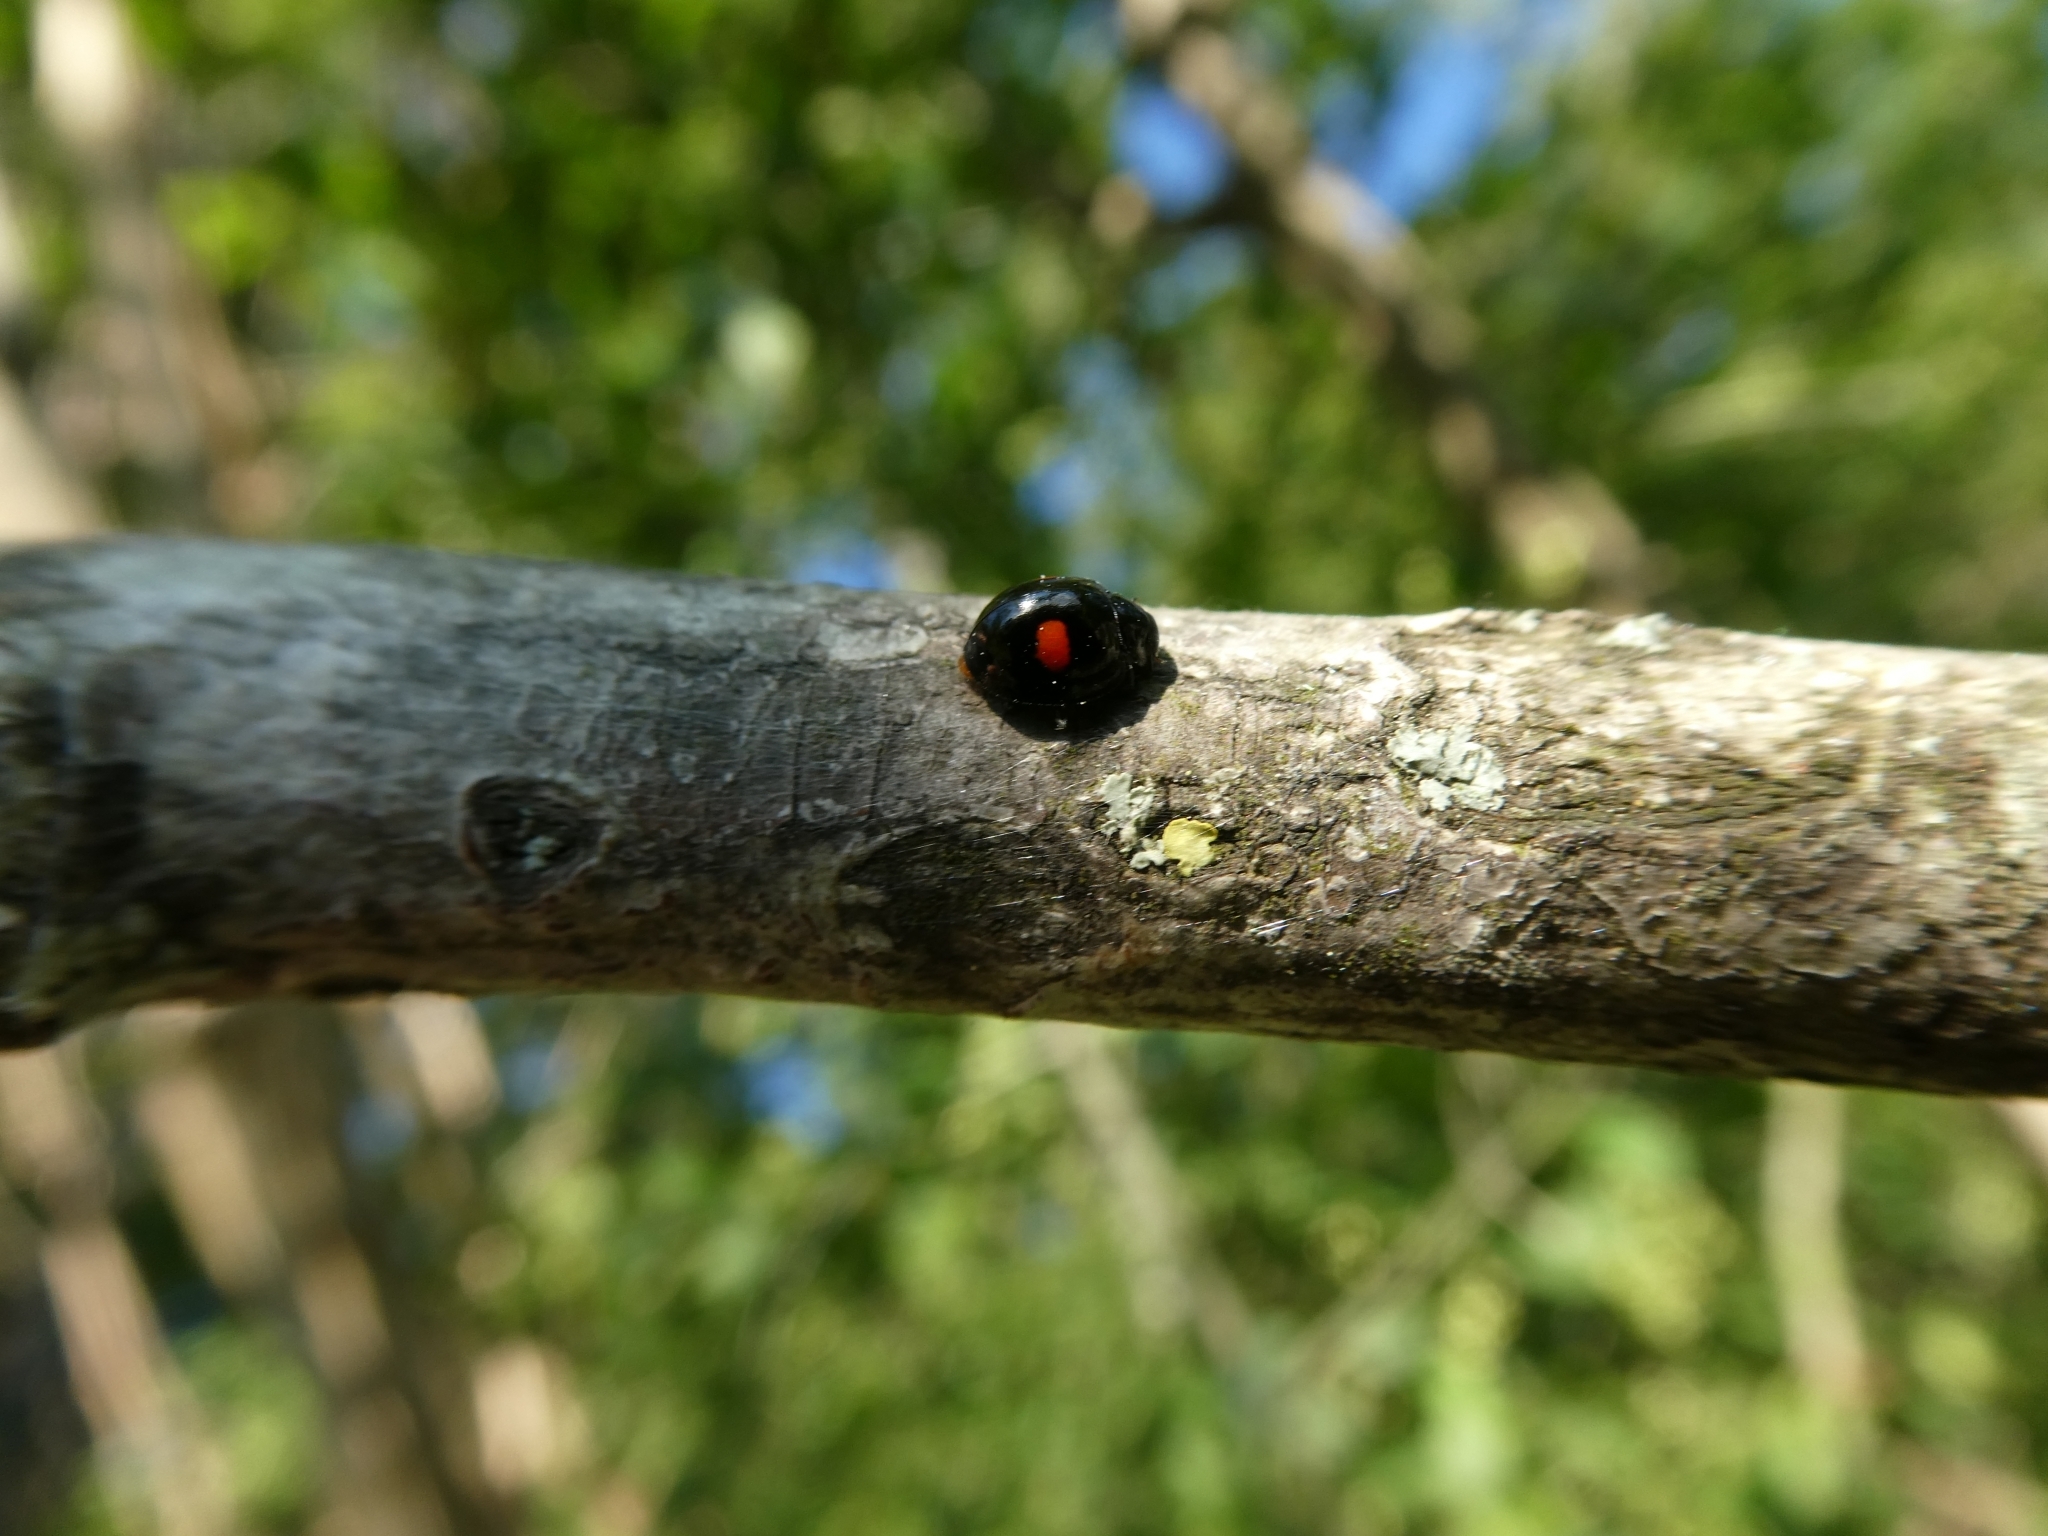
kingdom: Animalia
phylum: Arthropoda
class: Insecta
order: Coleoptera
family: Coccinellidae
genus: Chilocorus
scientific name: Chilocorus renipustulatus
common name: Kidney-spot ladybird
